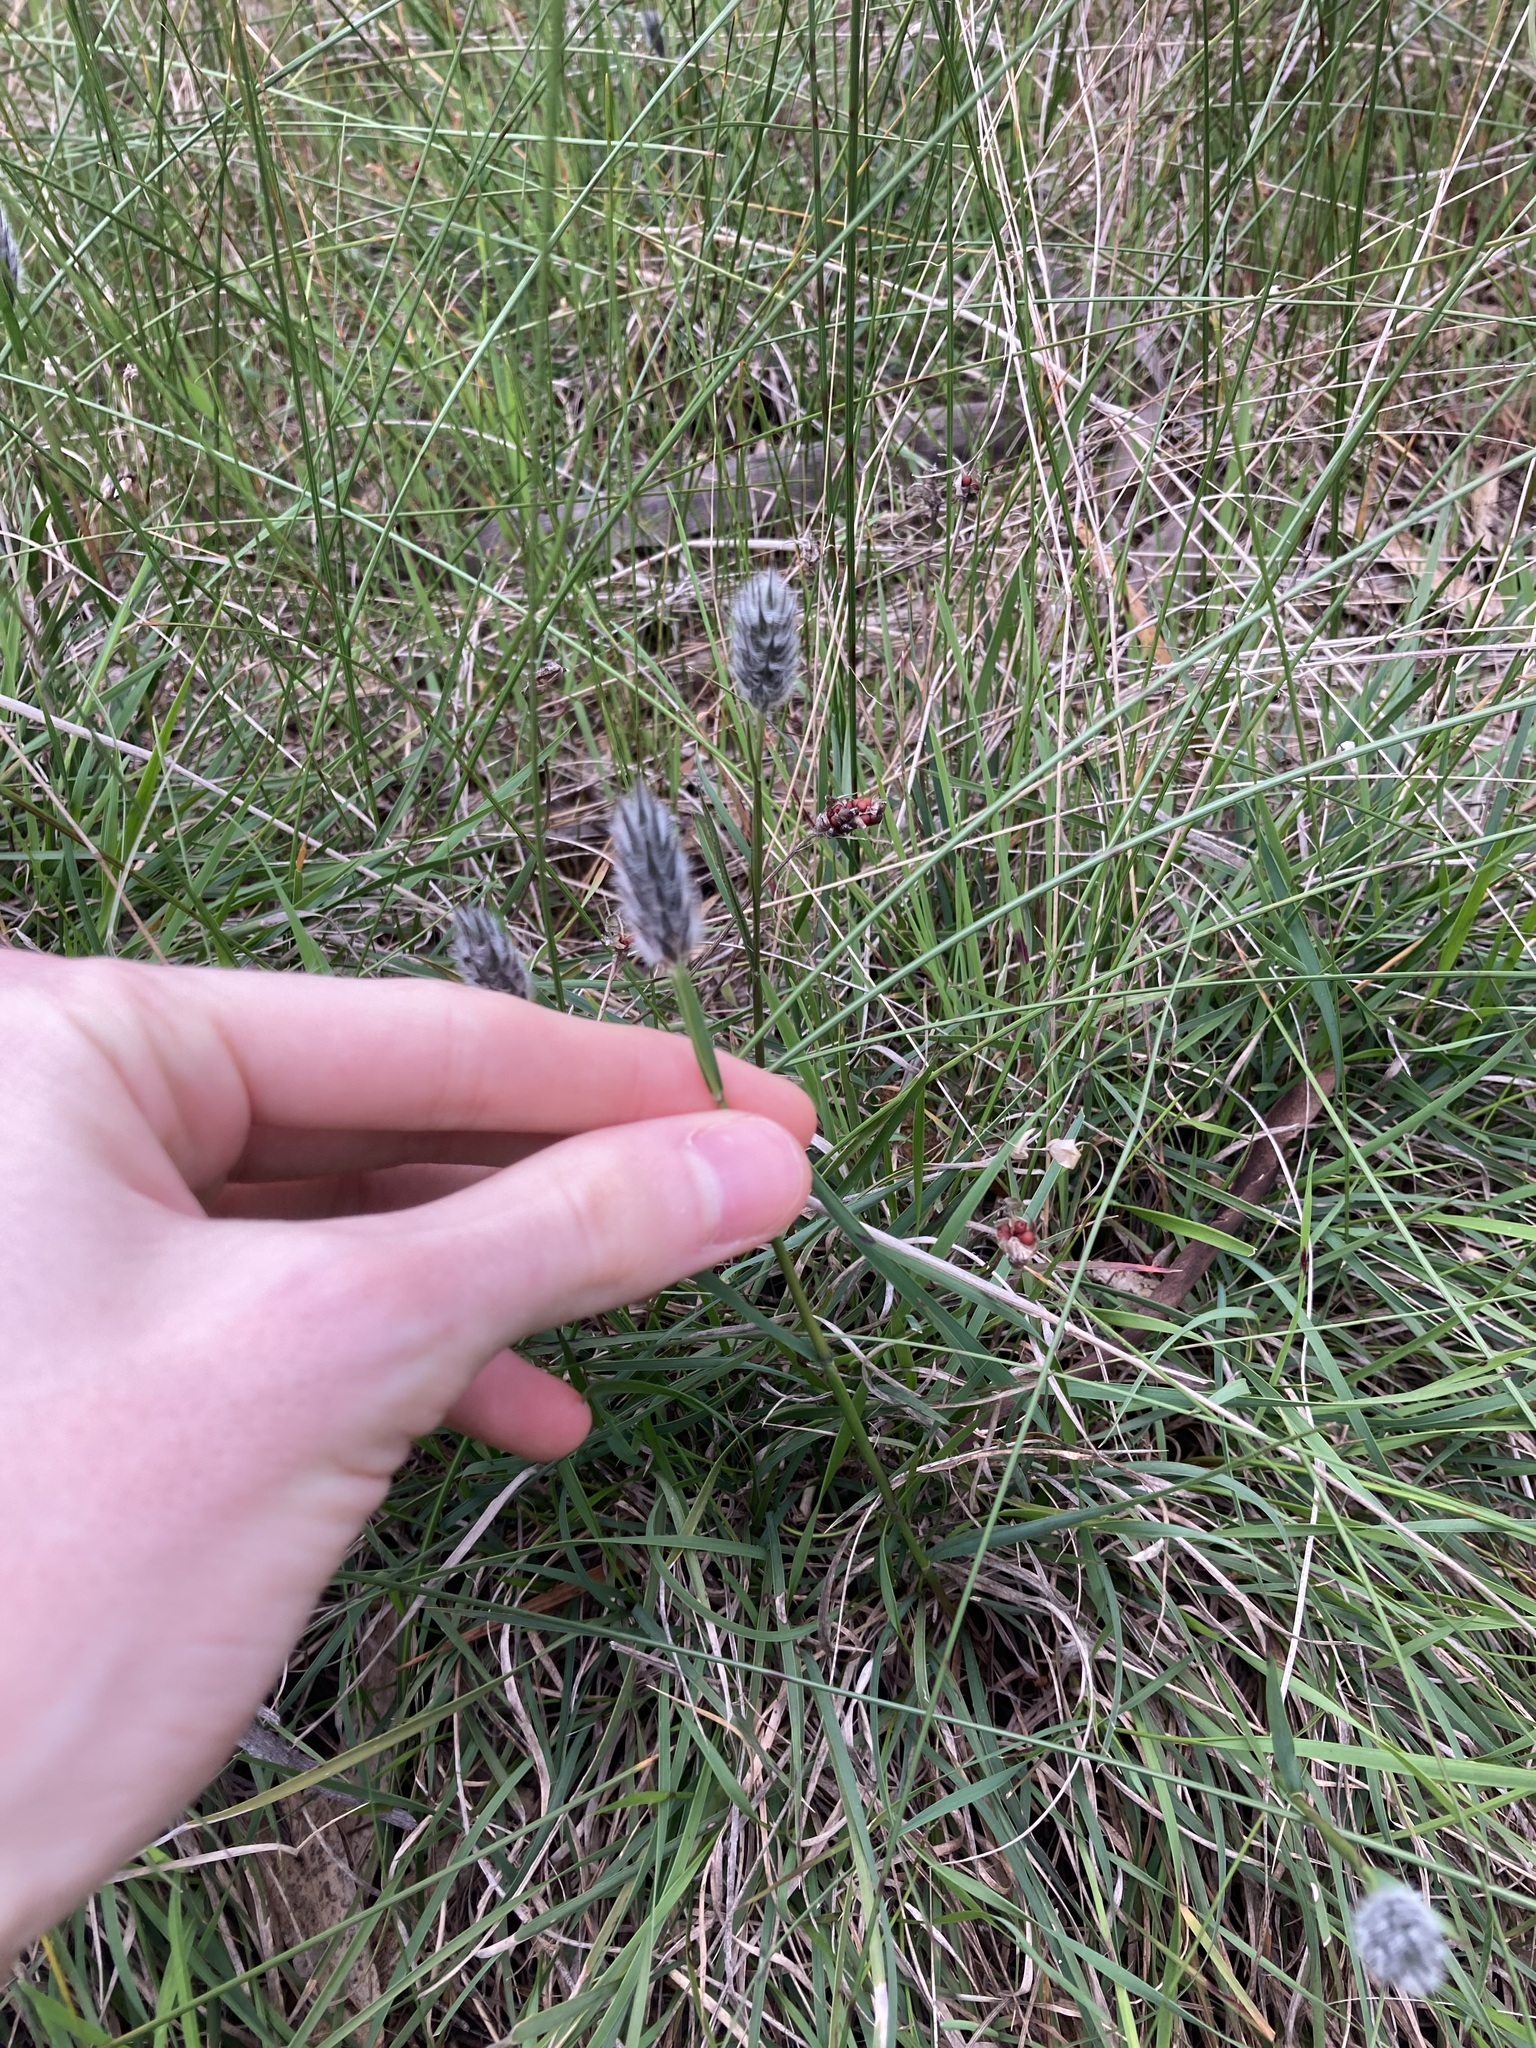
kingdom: Plantae
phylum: Tracheophyta
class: Liliopsida
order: Poales
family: Poaceae
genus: Neurachne
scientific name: Neurachne alopecuroidea
